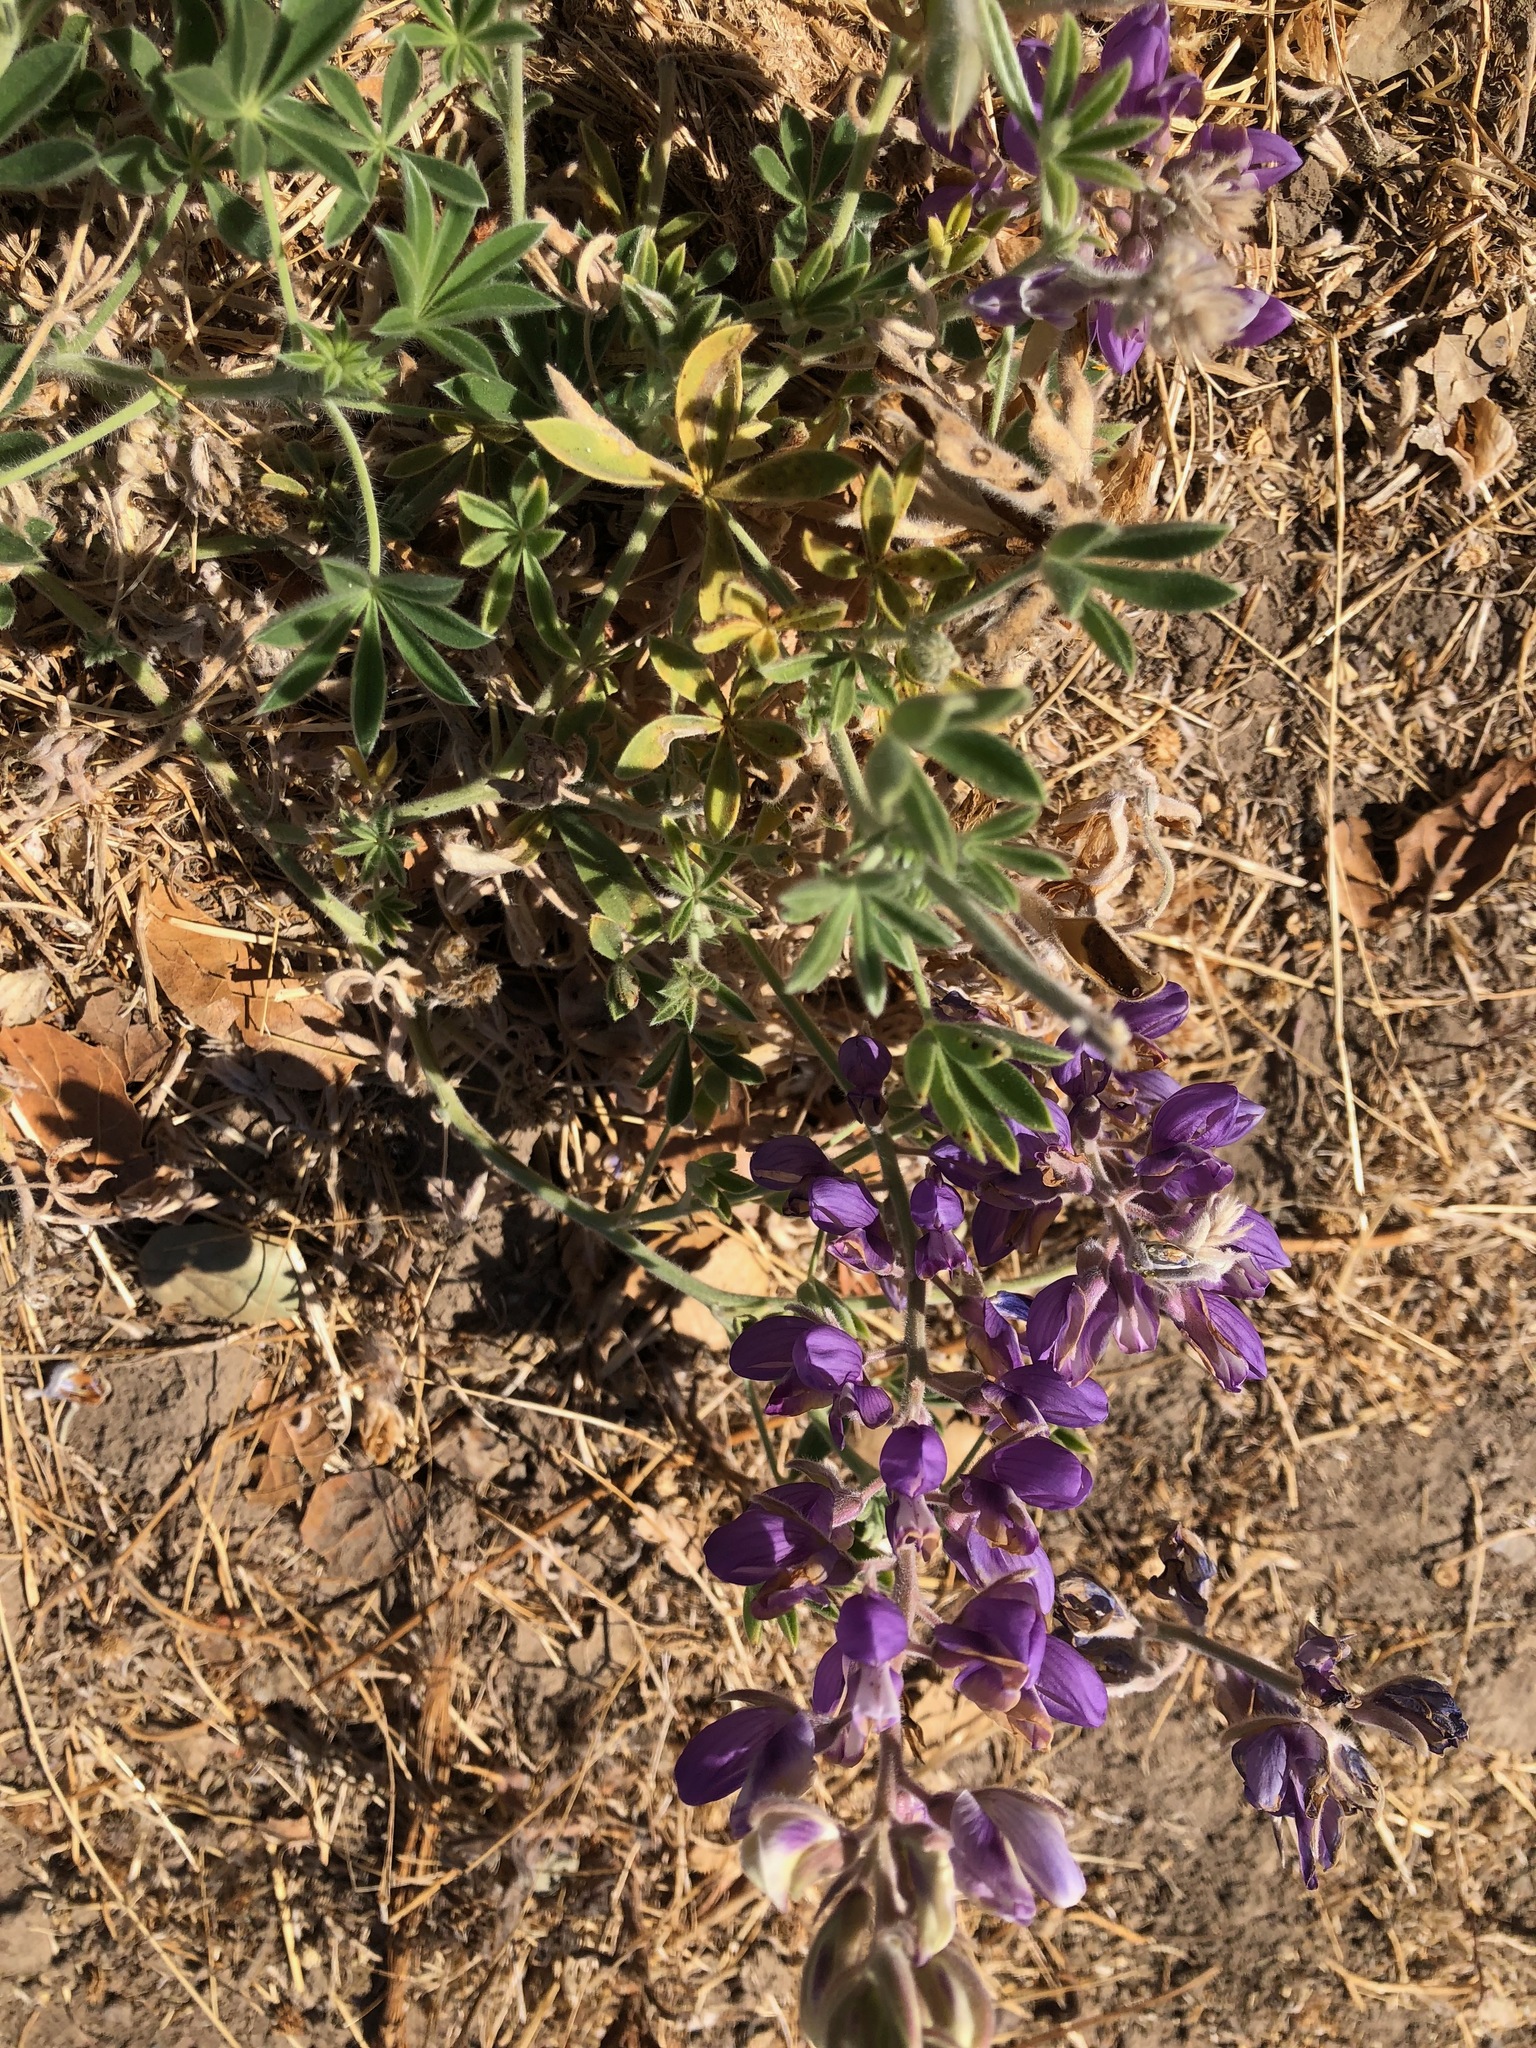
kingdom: Plantae
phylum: Tracheophyta
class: Magnoliopsida
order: Fabales
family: Fabaceae
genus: Lupinus
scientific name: Lupinus formosus
